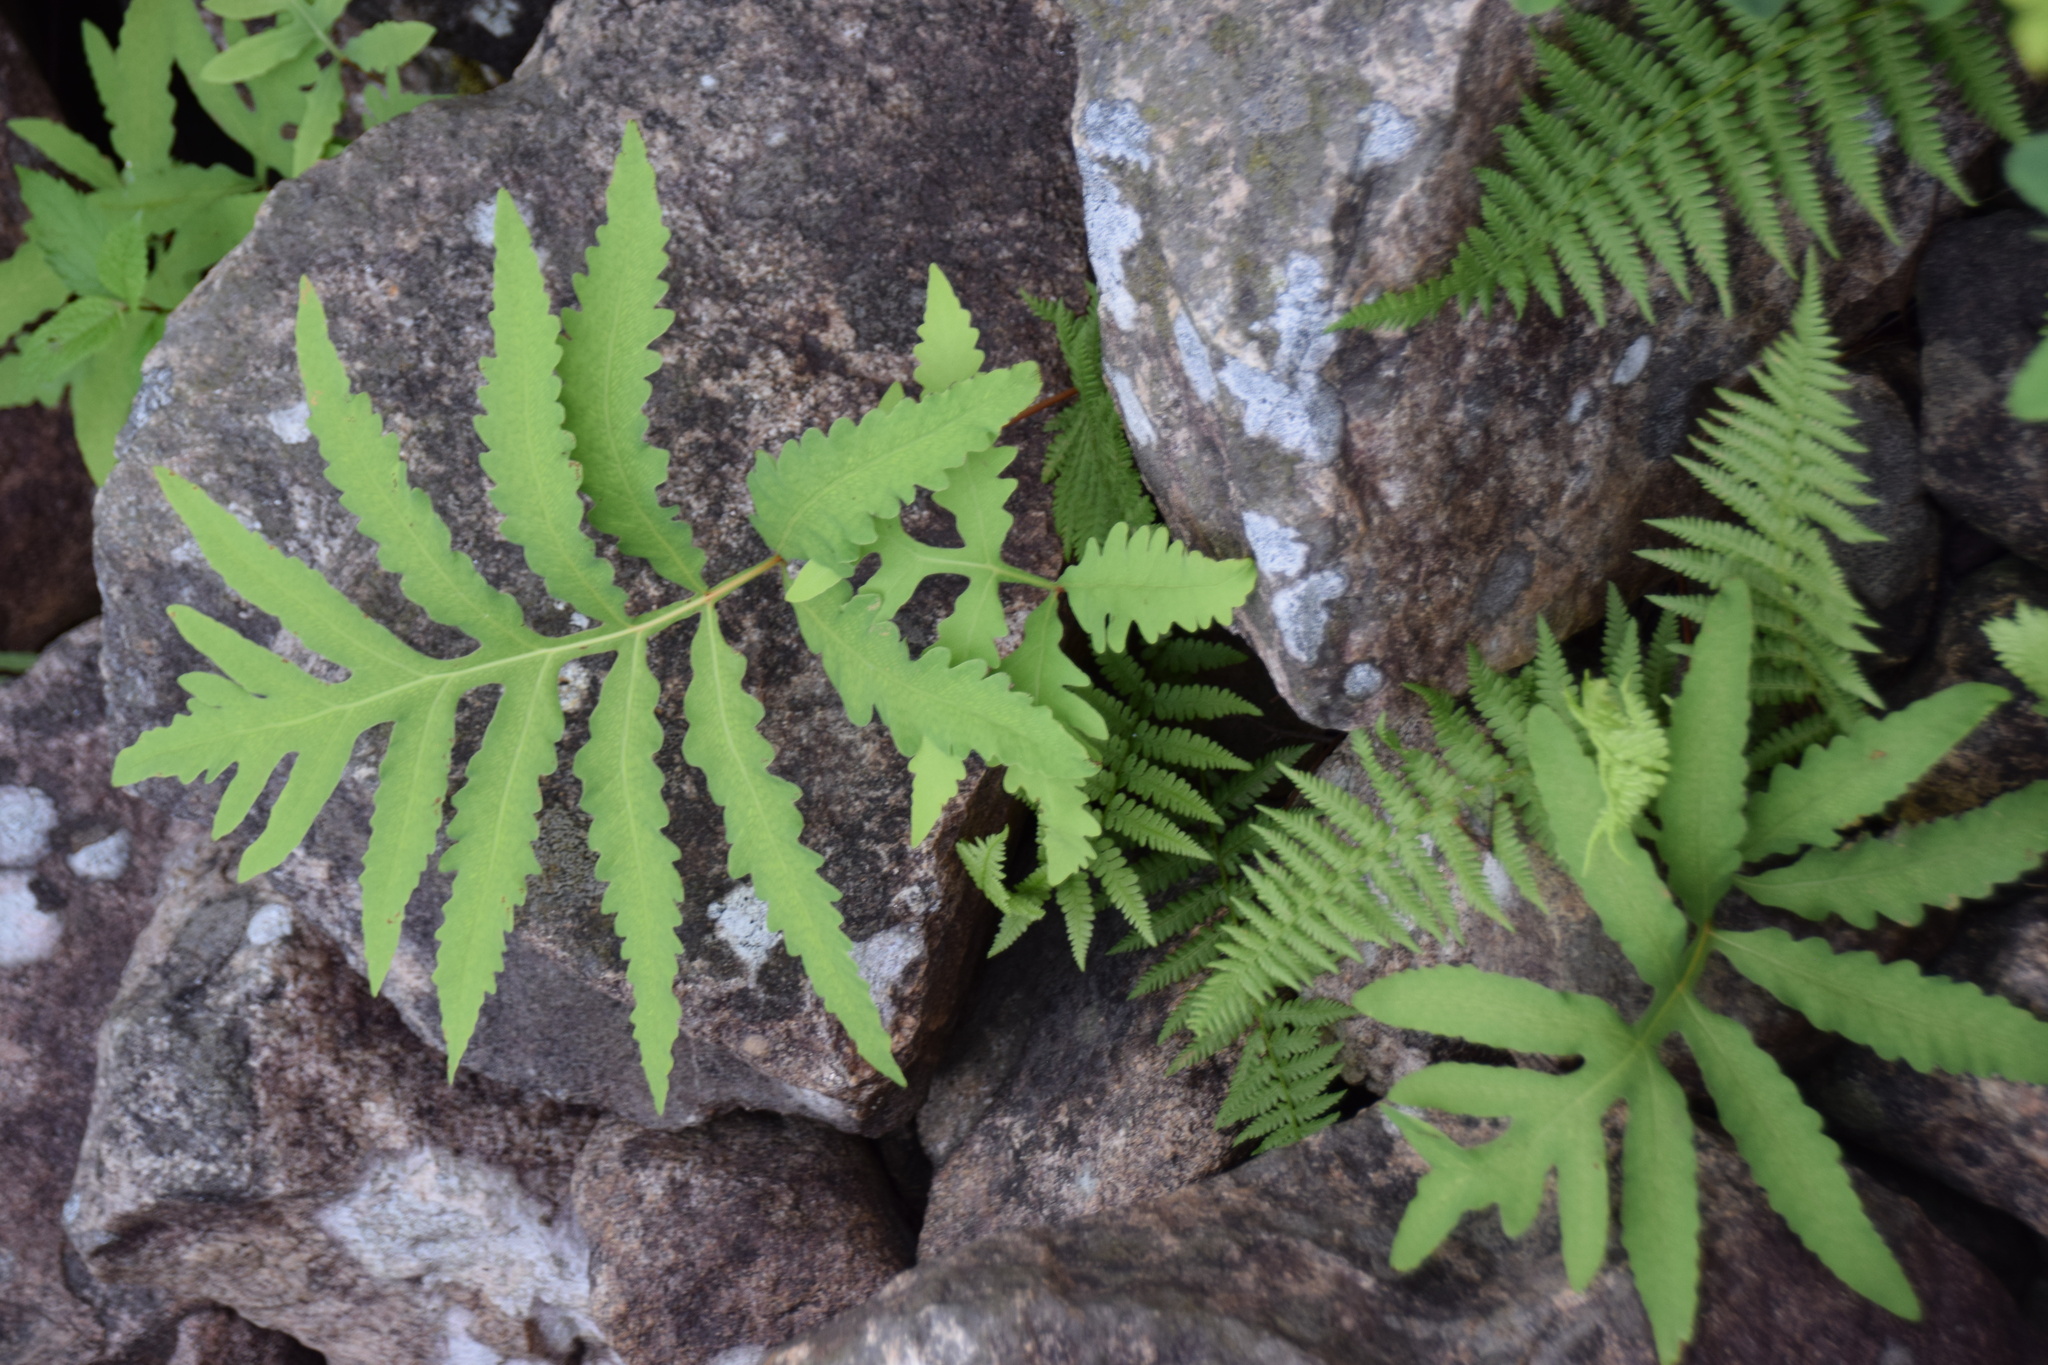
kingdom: Plantae
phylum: Tracheophyta
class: Polypodiopsida
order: Polypodiales
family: Onocleaceae
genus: Onoclea
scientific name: Onoclea sensibilis
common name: Sensitive fern
